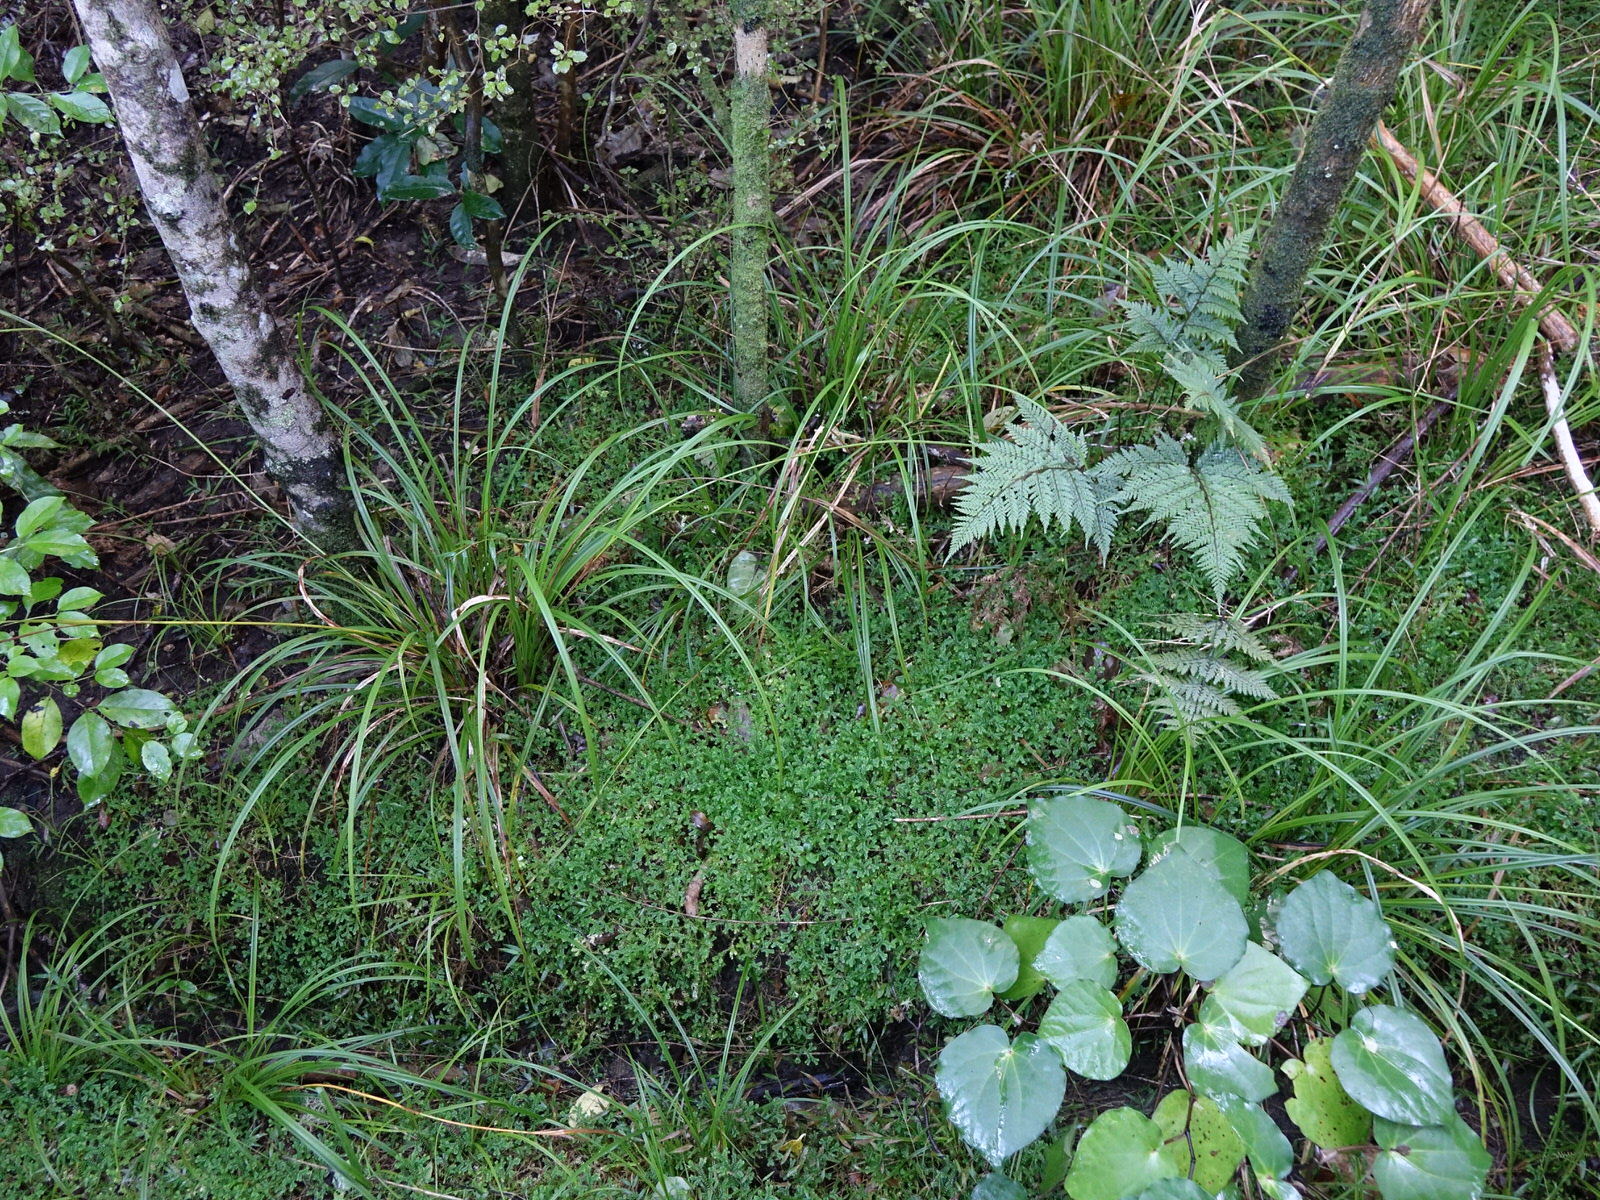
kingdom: Plantae
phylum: Tracheophyta
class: Lycopodiopsida
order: Selaginellales
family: Selaginellaceae
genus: Selaginella
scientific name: Selaginella kraussiana
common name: Krauss' spikemoss
